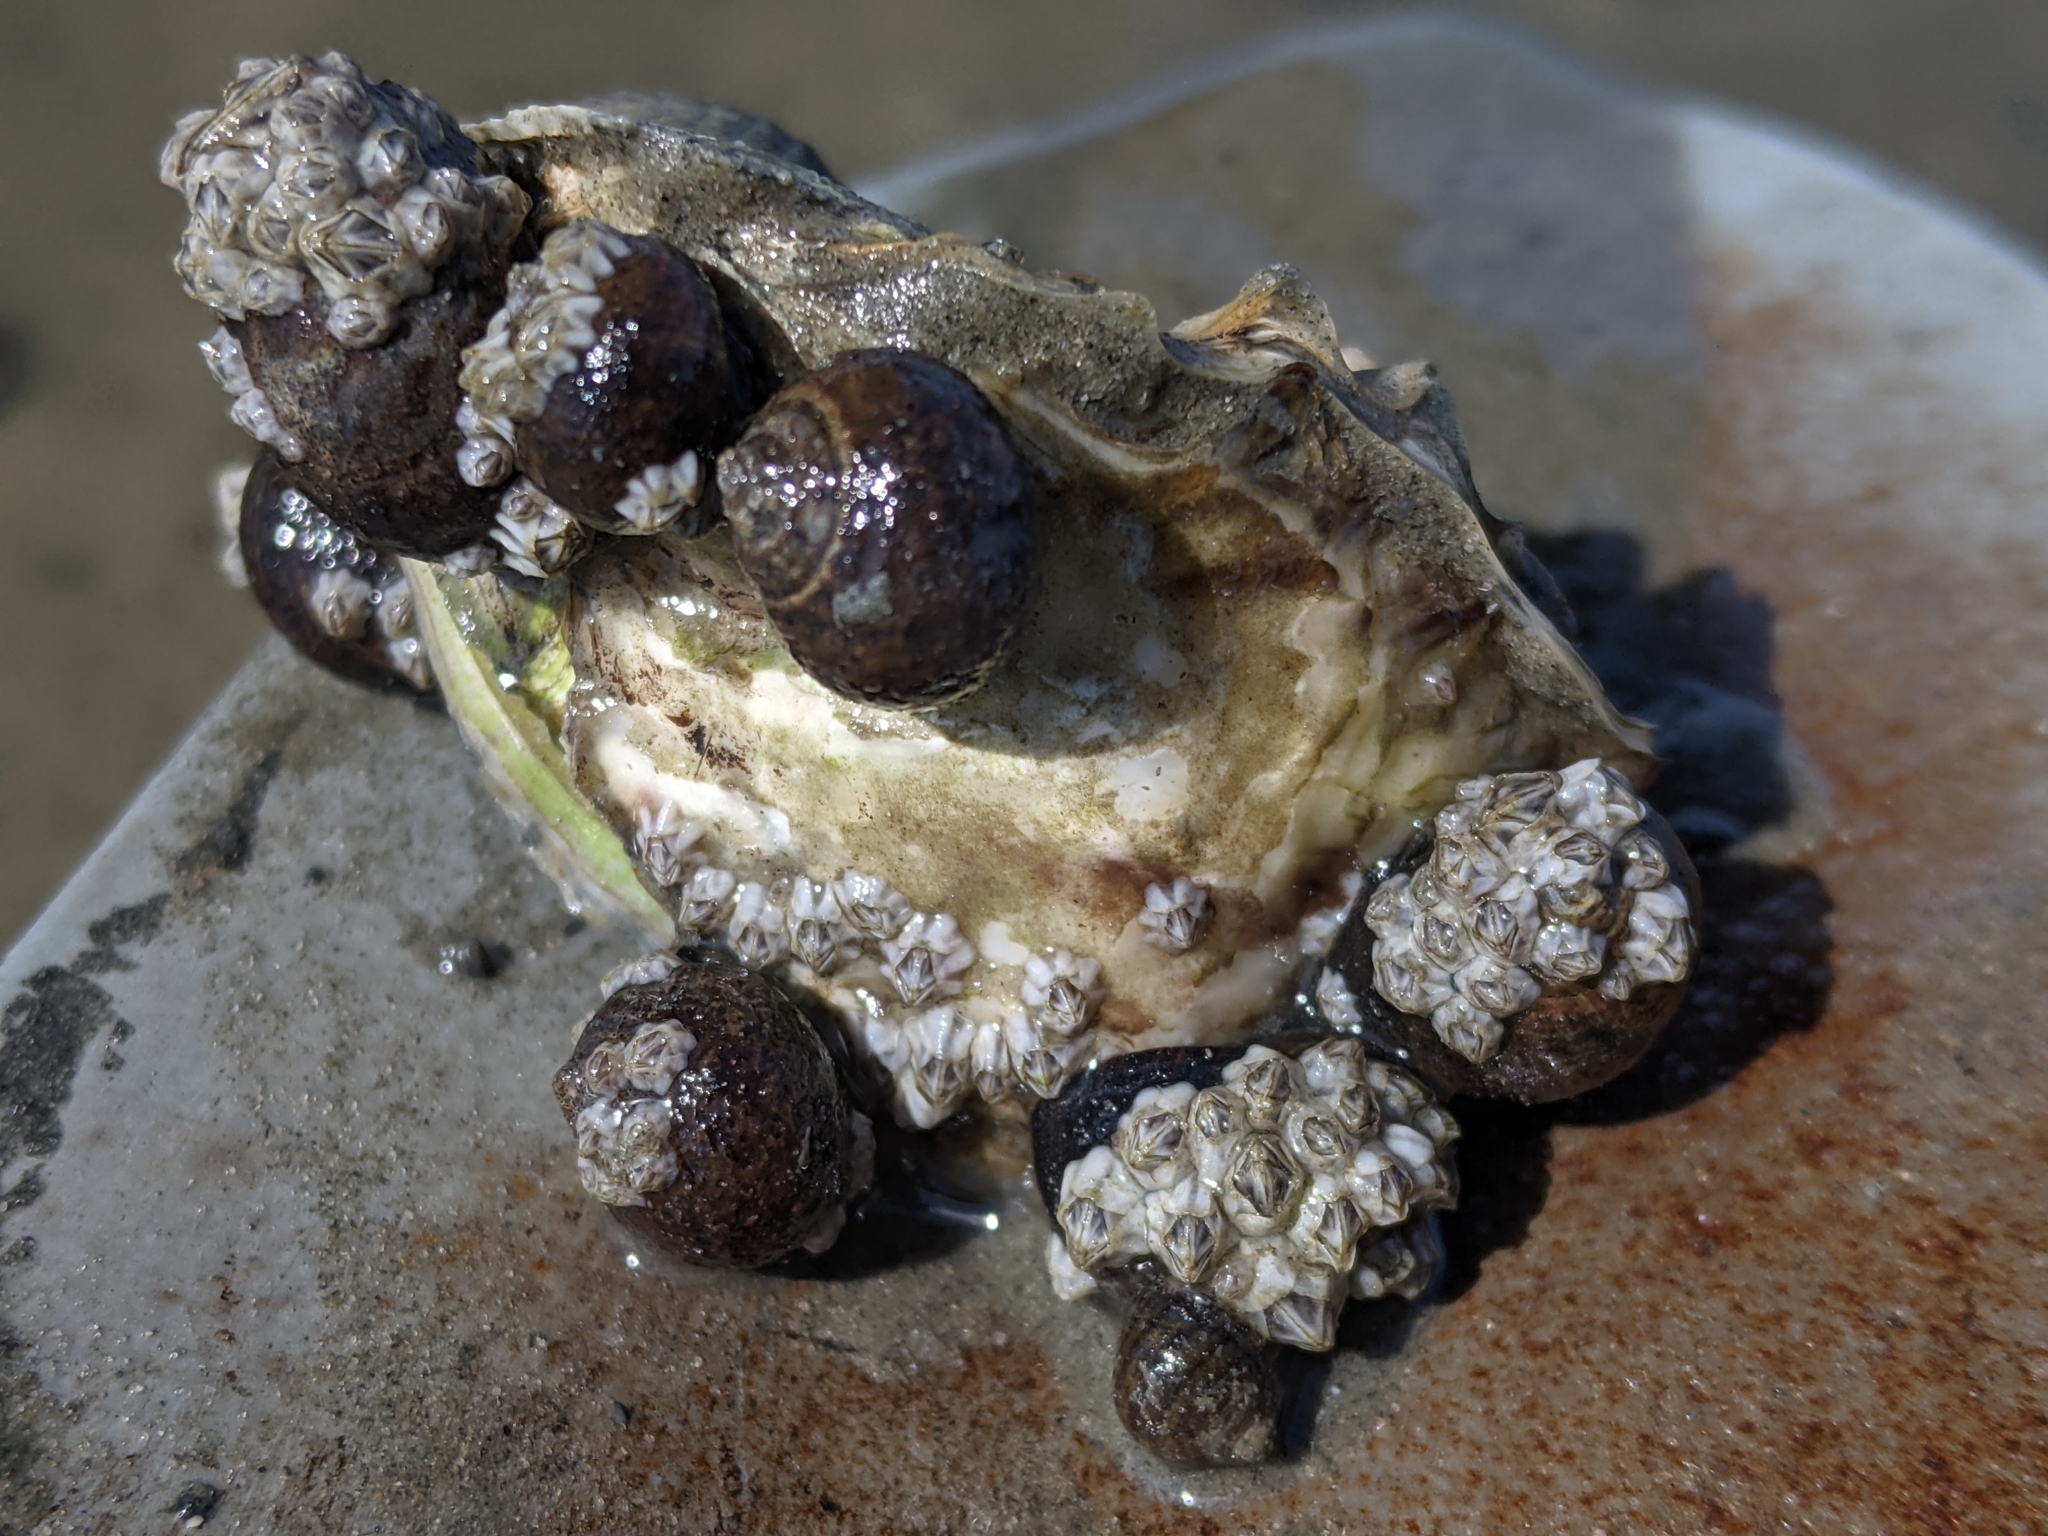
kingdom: Animalia
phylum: Mollusca
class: Bivalvia
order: Ostreida
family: Ostreidae
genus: Magallana
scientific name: Magallana gigas
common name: Pacific oyster
